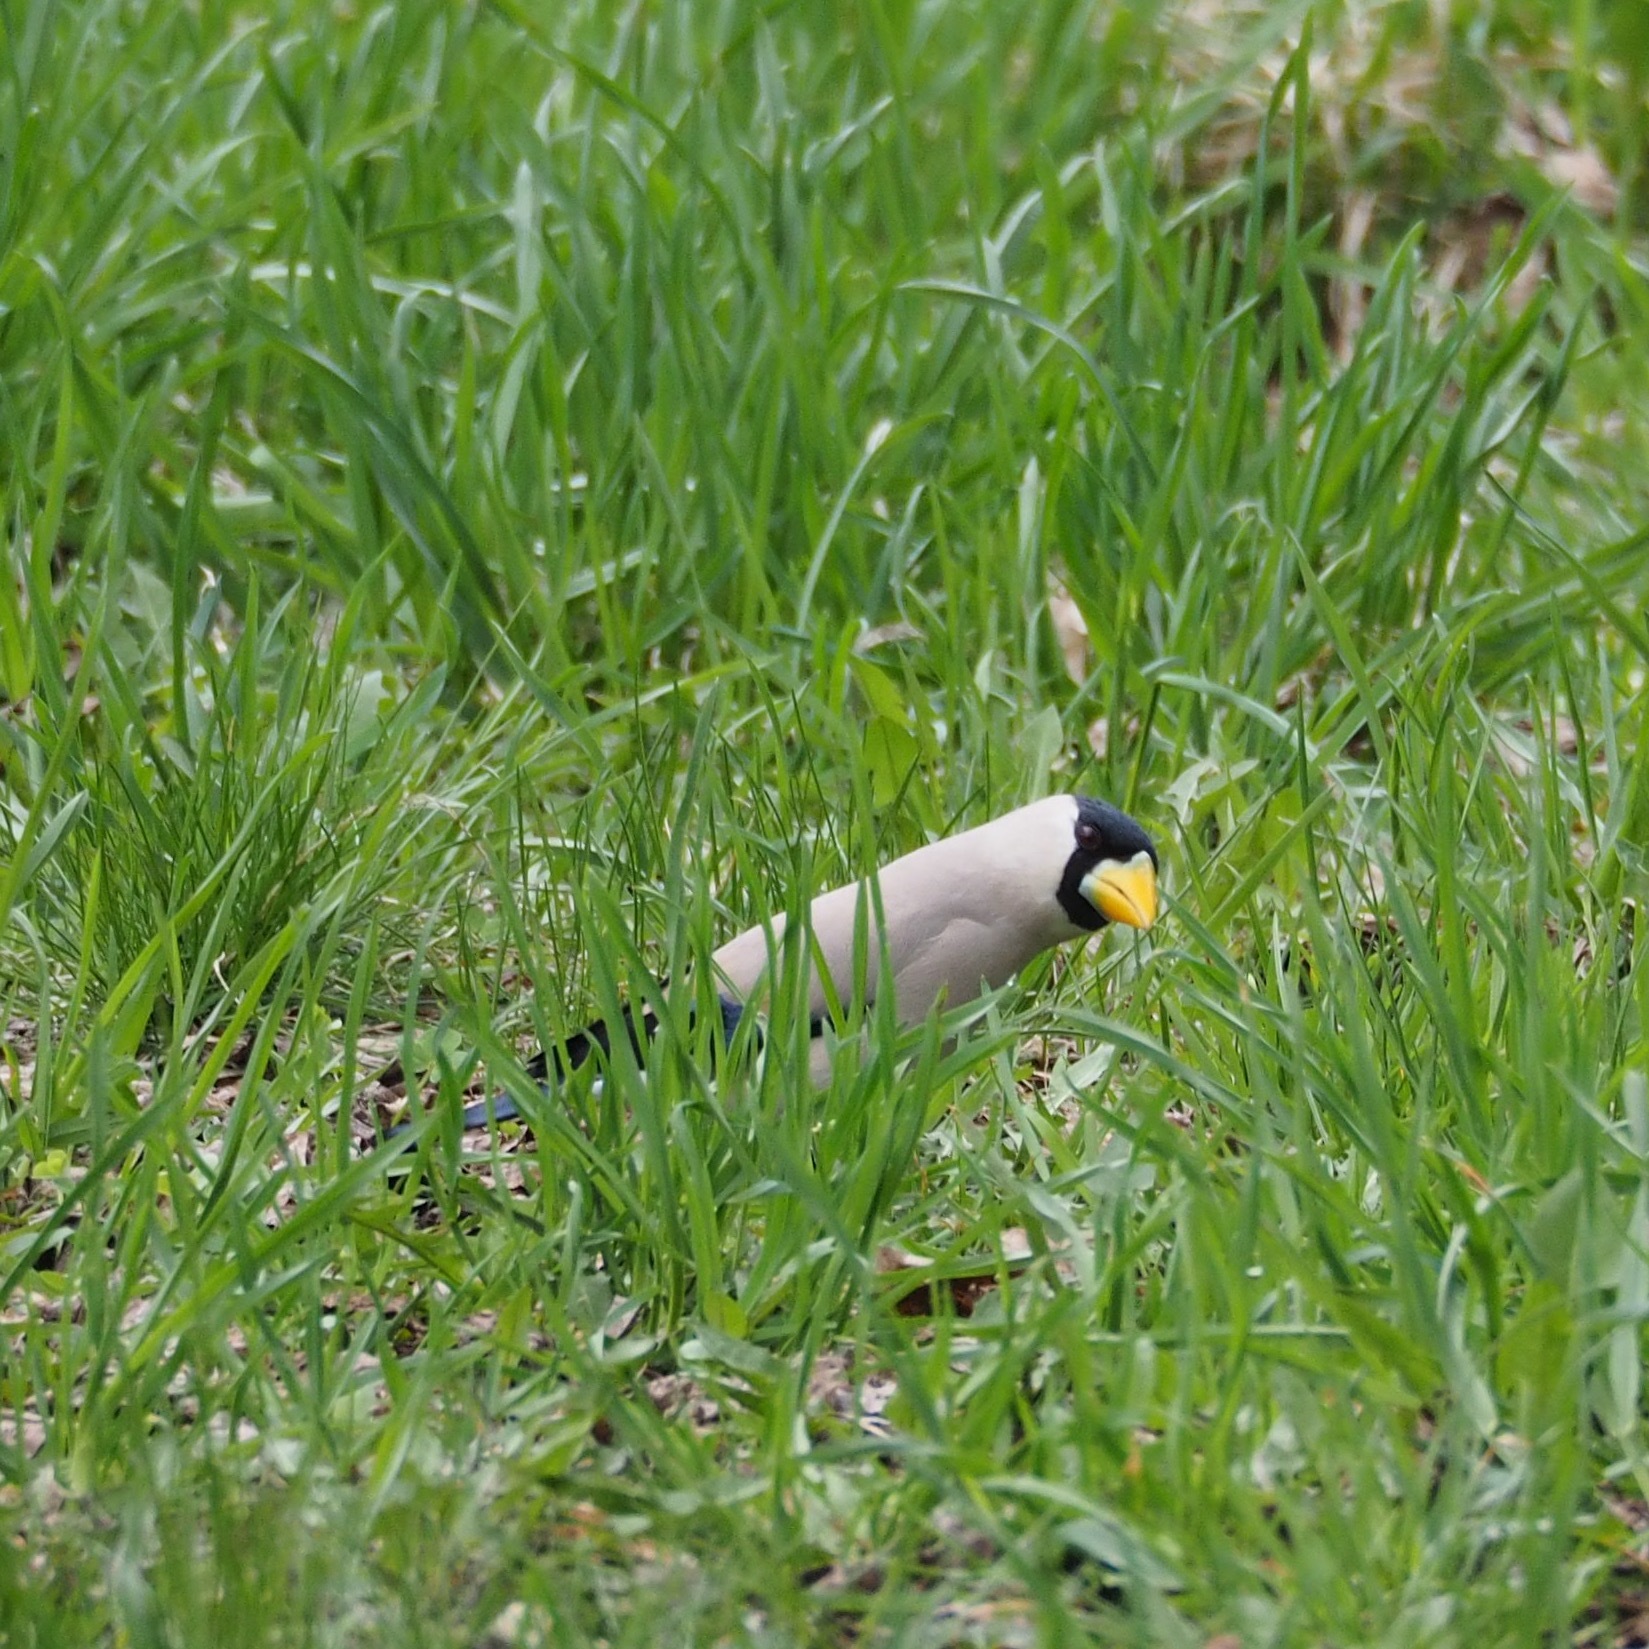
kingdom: Animalia
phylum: Chordata
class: Aves
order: Passeriformes
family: Fringillidae
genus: Eophona
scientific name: Eophona personata
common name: Japanese grosbeak
